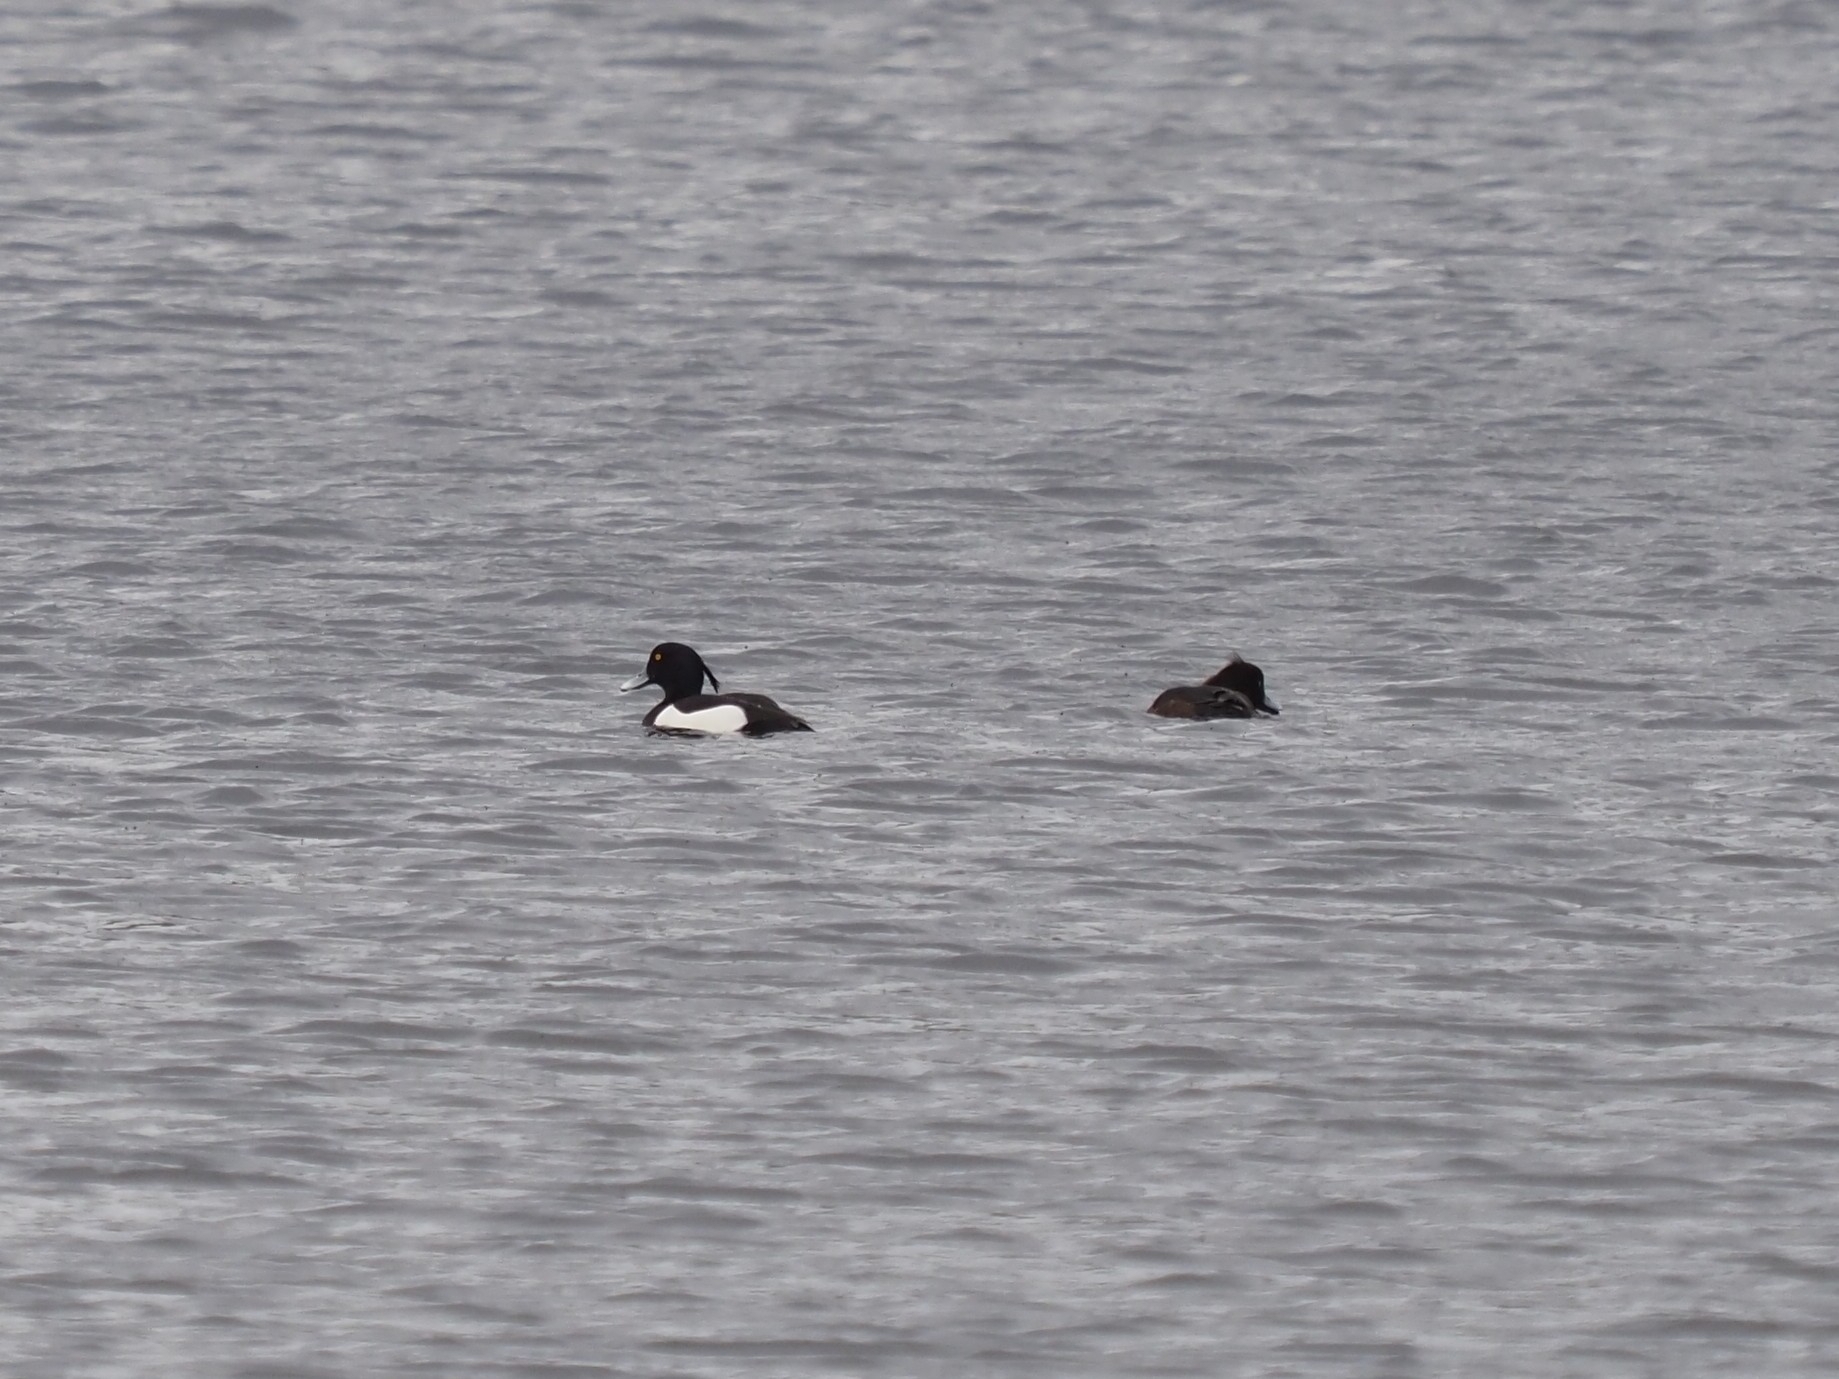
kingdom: Animalia
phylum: Chordata
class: Aves
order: Anseriformes
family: Anatidae
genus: Aythya
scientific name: Aythya fuligula
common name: Tufted duck
